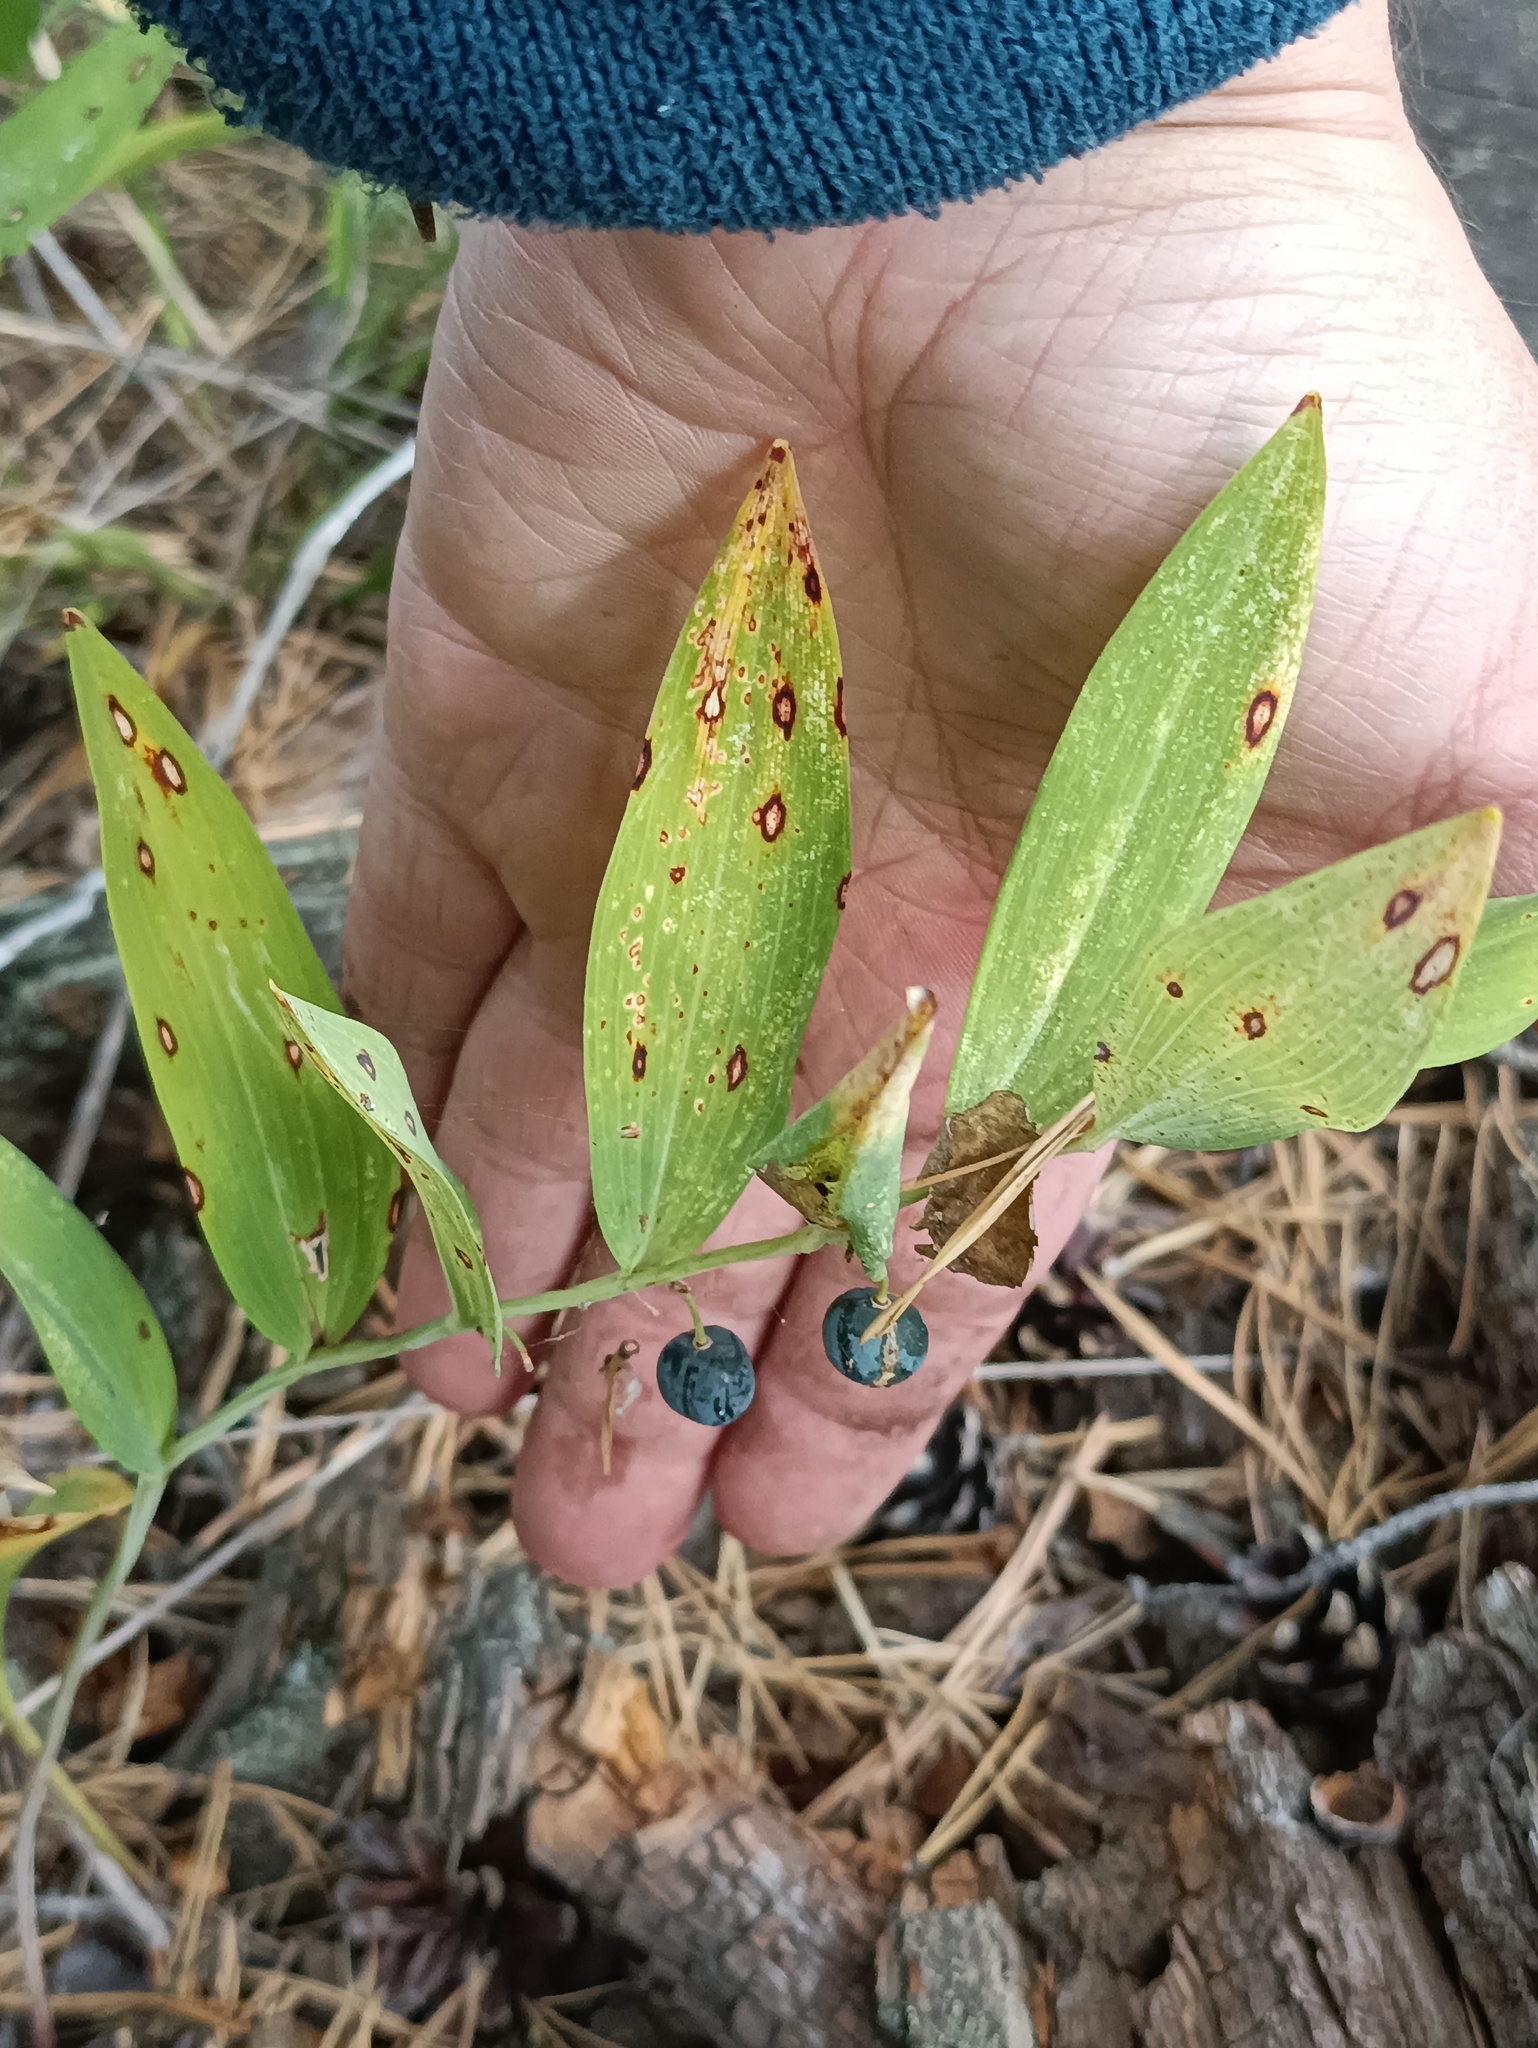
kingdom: Plantae
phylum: Tracheophyta
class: Liliopsida
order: Asparagales
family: Asparagaceae
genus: Polygonatum
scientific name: Polygonatum odoratum
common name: Angular solomon's-seal
